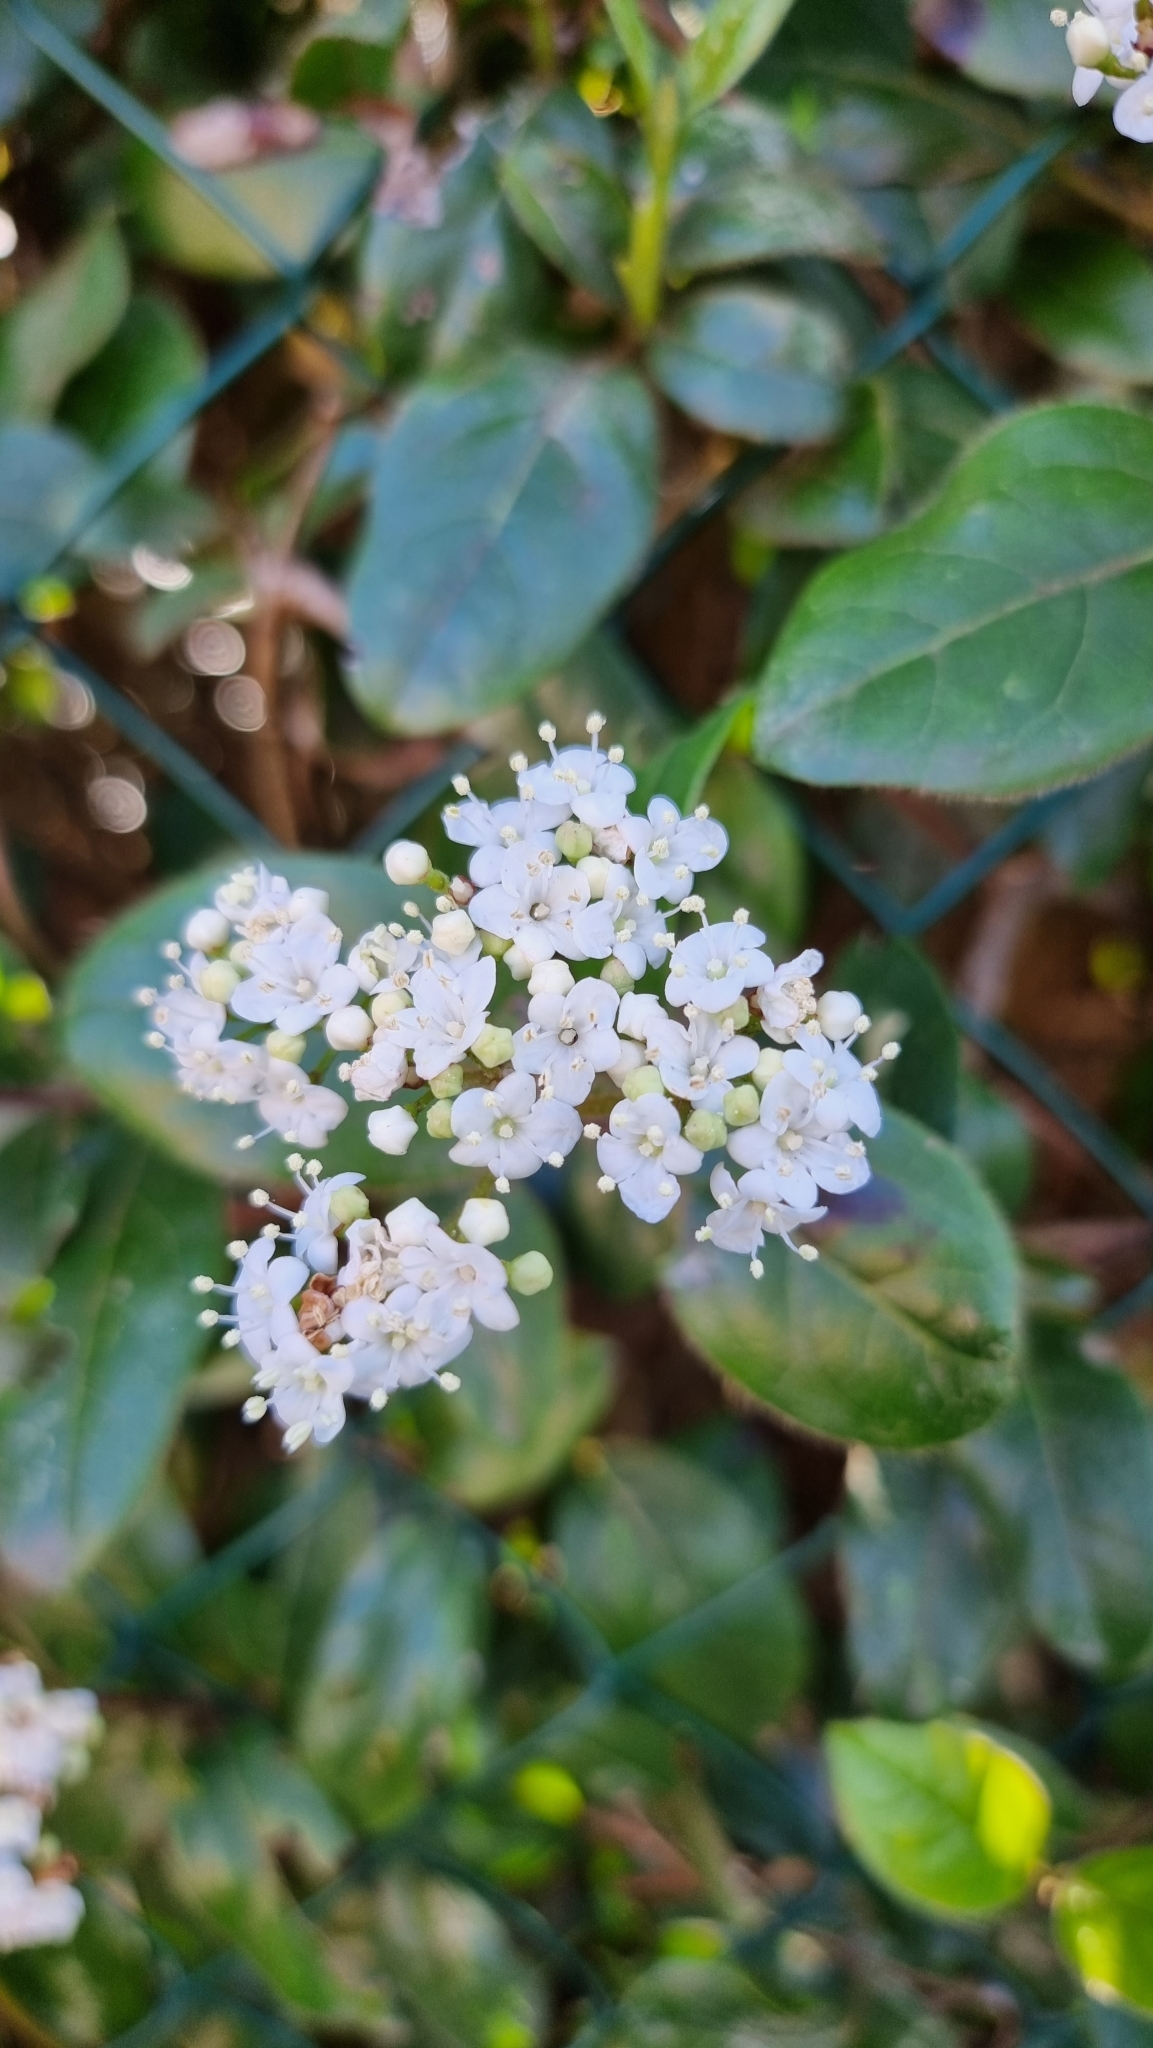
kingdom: Plantae
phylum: Tracheophyta
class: Magnoliopsida
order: Dipsacales
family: Viburnaceae
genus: Viburnum
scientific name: Viburnum tinus
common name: Laurustinus
